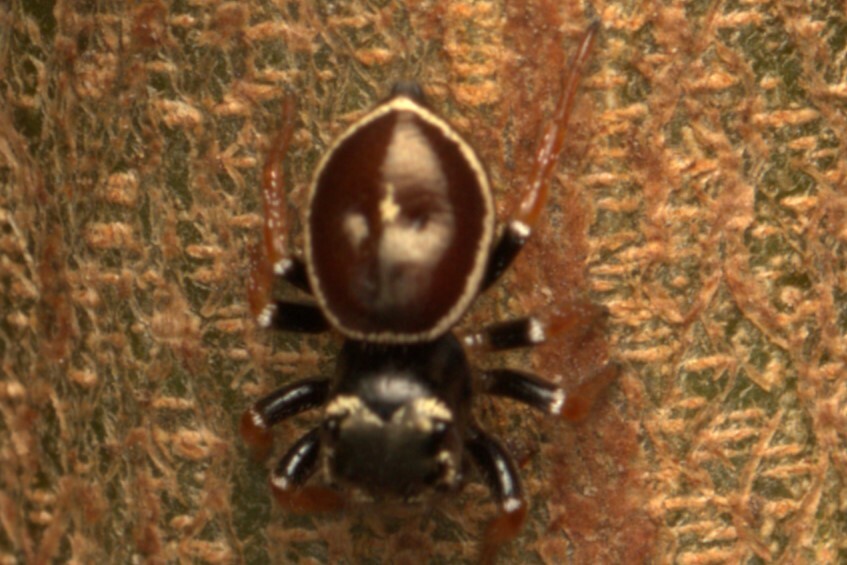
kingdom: Animalia
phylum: Arthropoda
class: Arachnida
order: Araneae
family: Salticidae
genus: Zenodorus
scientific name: Zenodorus orbiculatus
